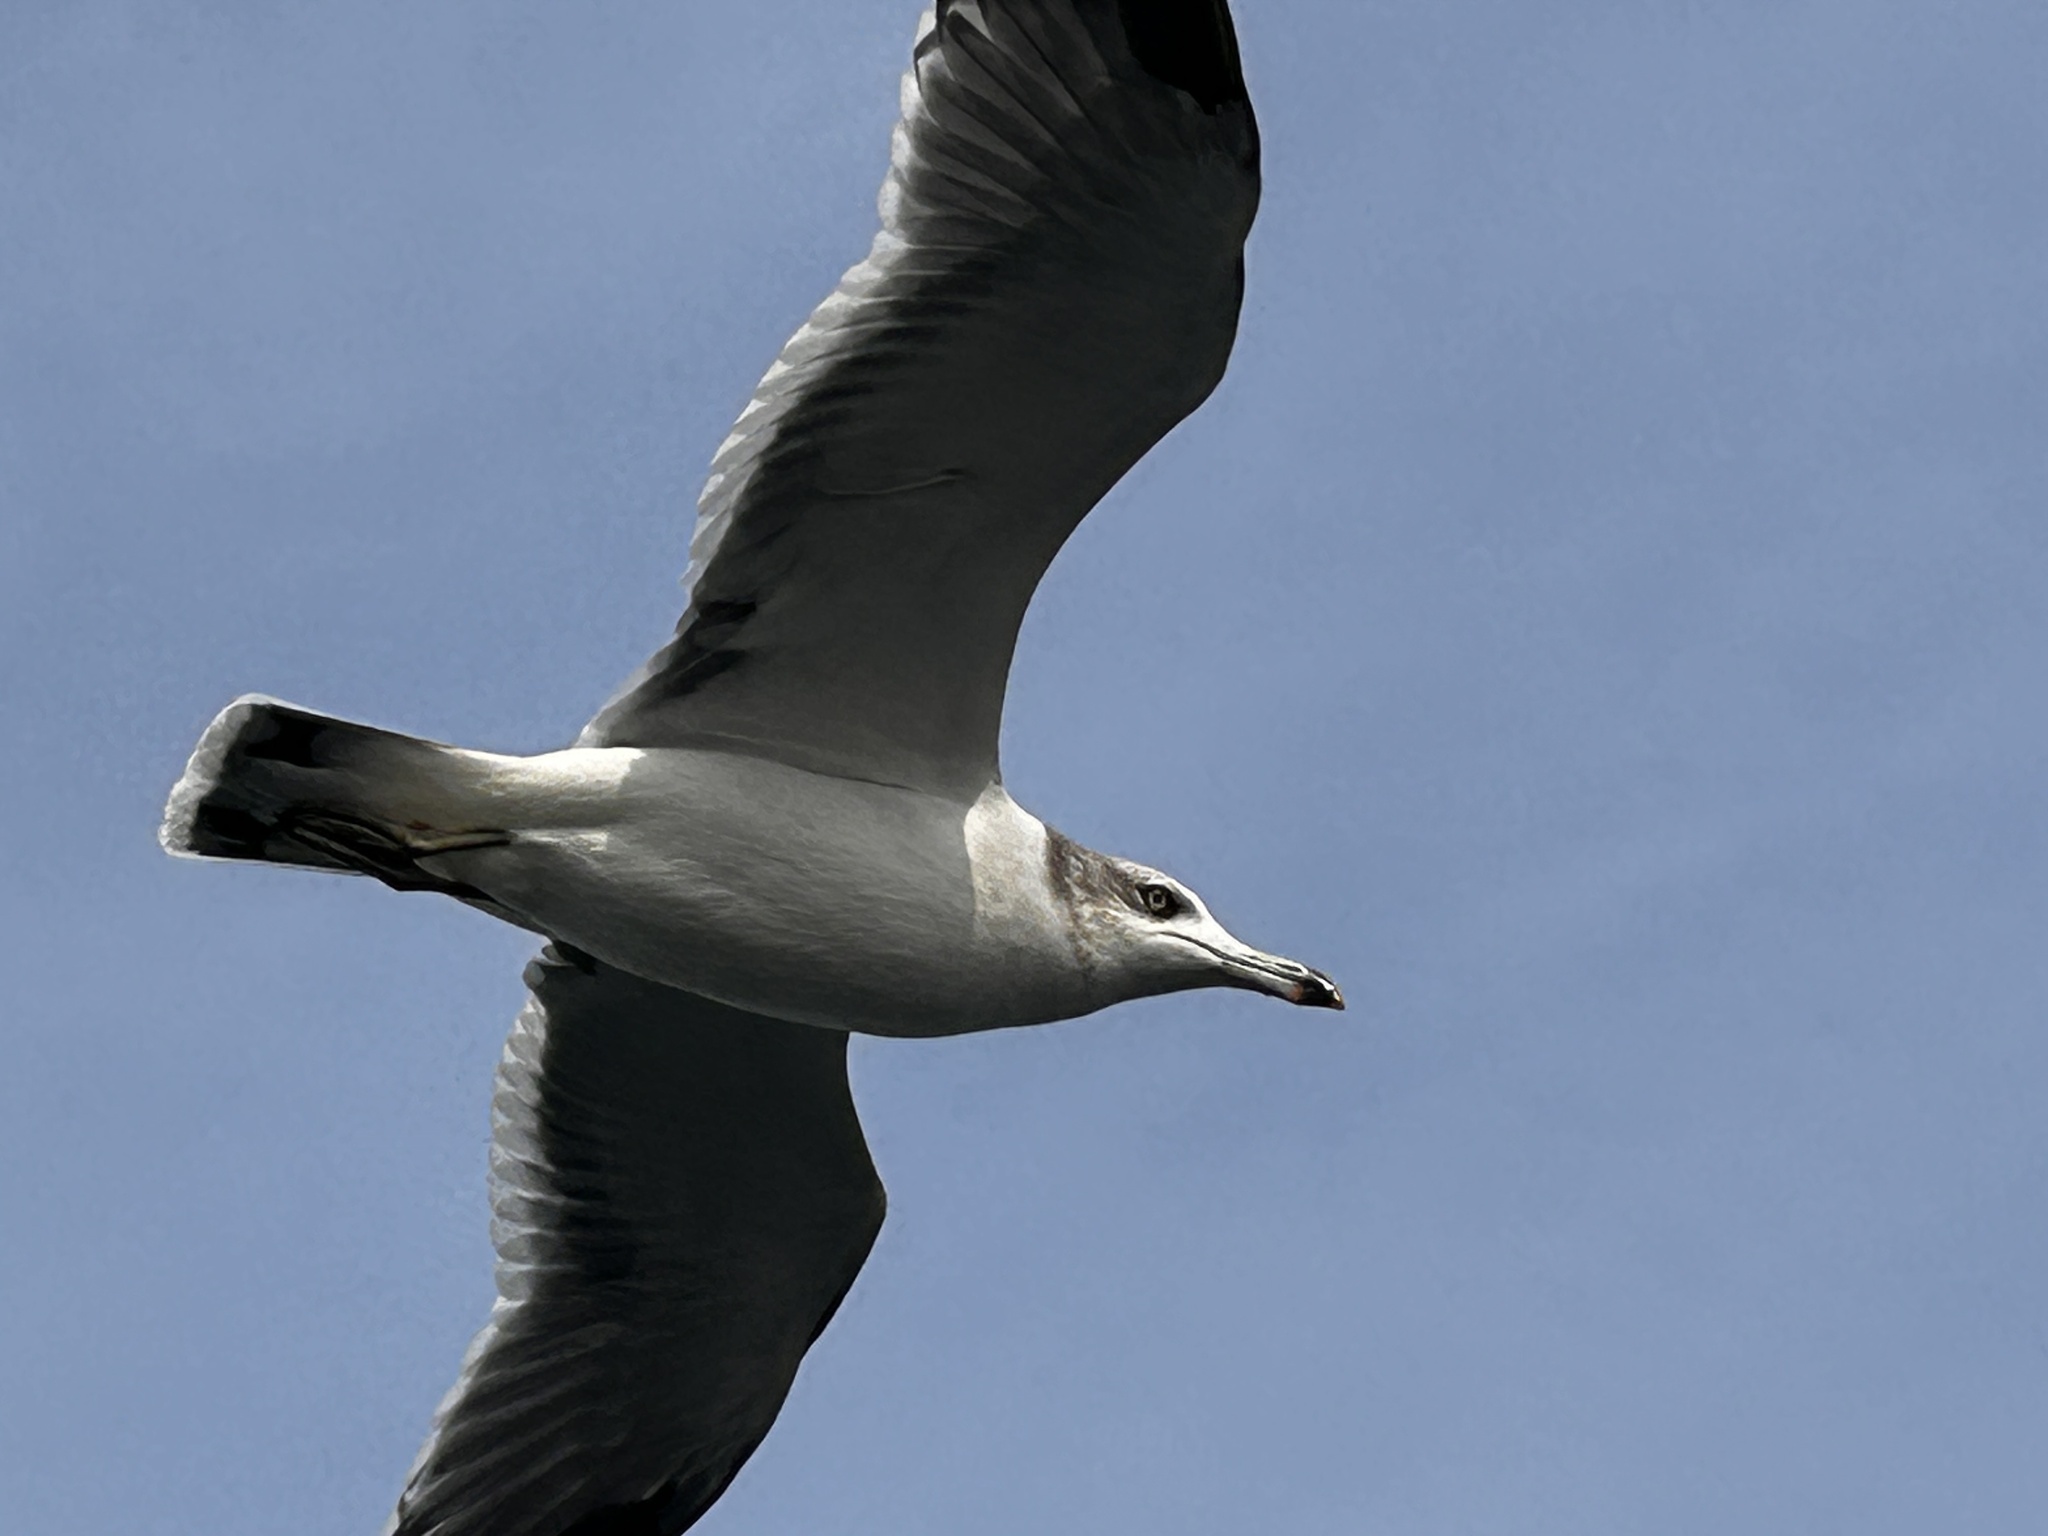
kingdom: Animalia
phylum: Chordata
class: Aves
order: Charadriiformes
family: Laridae
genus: Larus
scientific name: Larus crassirostris
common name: Black-tailed gull
